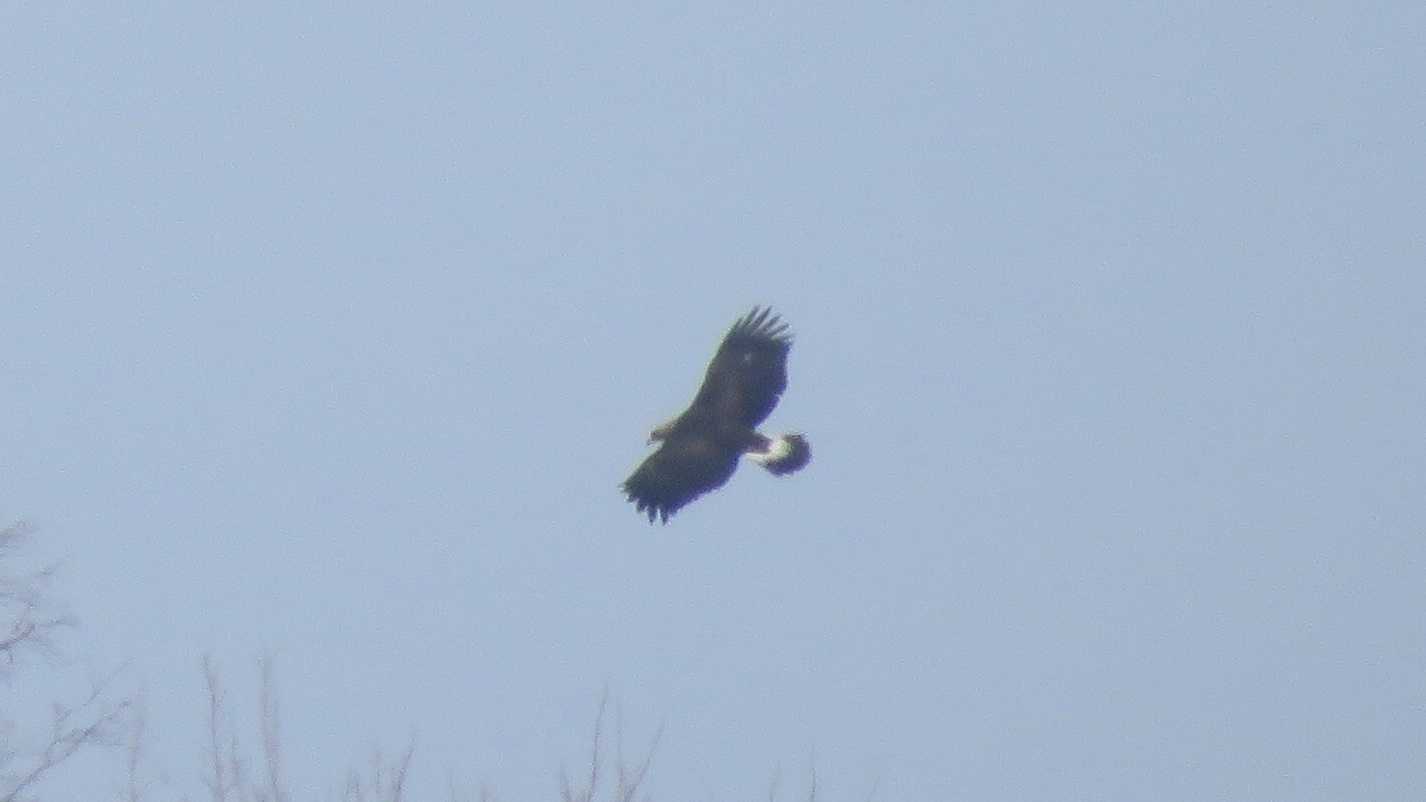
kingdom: Animalia
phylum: Chordata
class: Aves
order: Accipitriformes
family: Accipitridae
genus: Aquila
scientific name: Aquila chrysaetos
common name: Golden eagle
